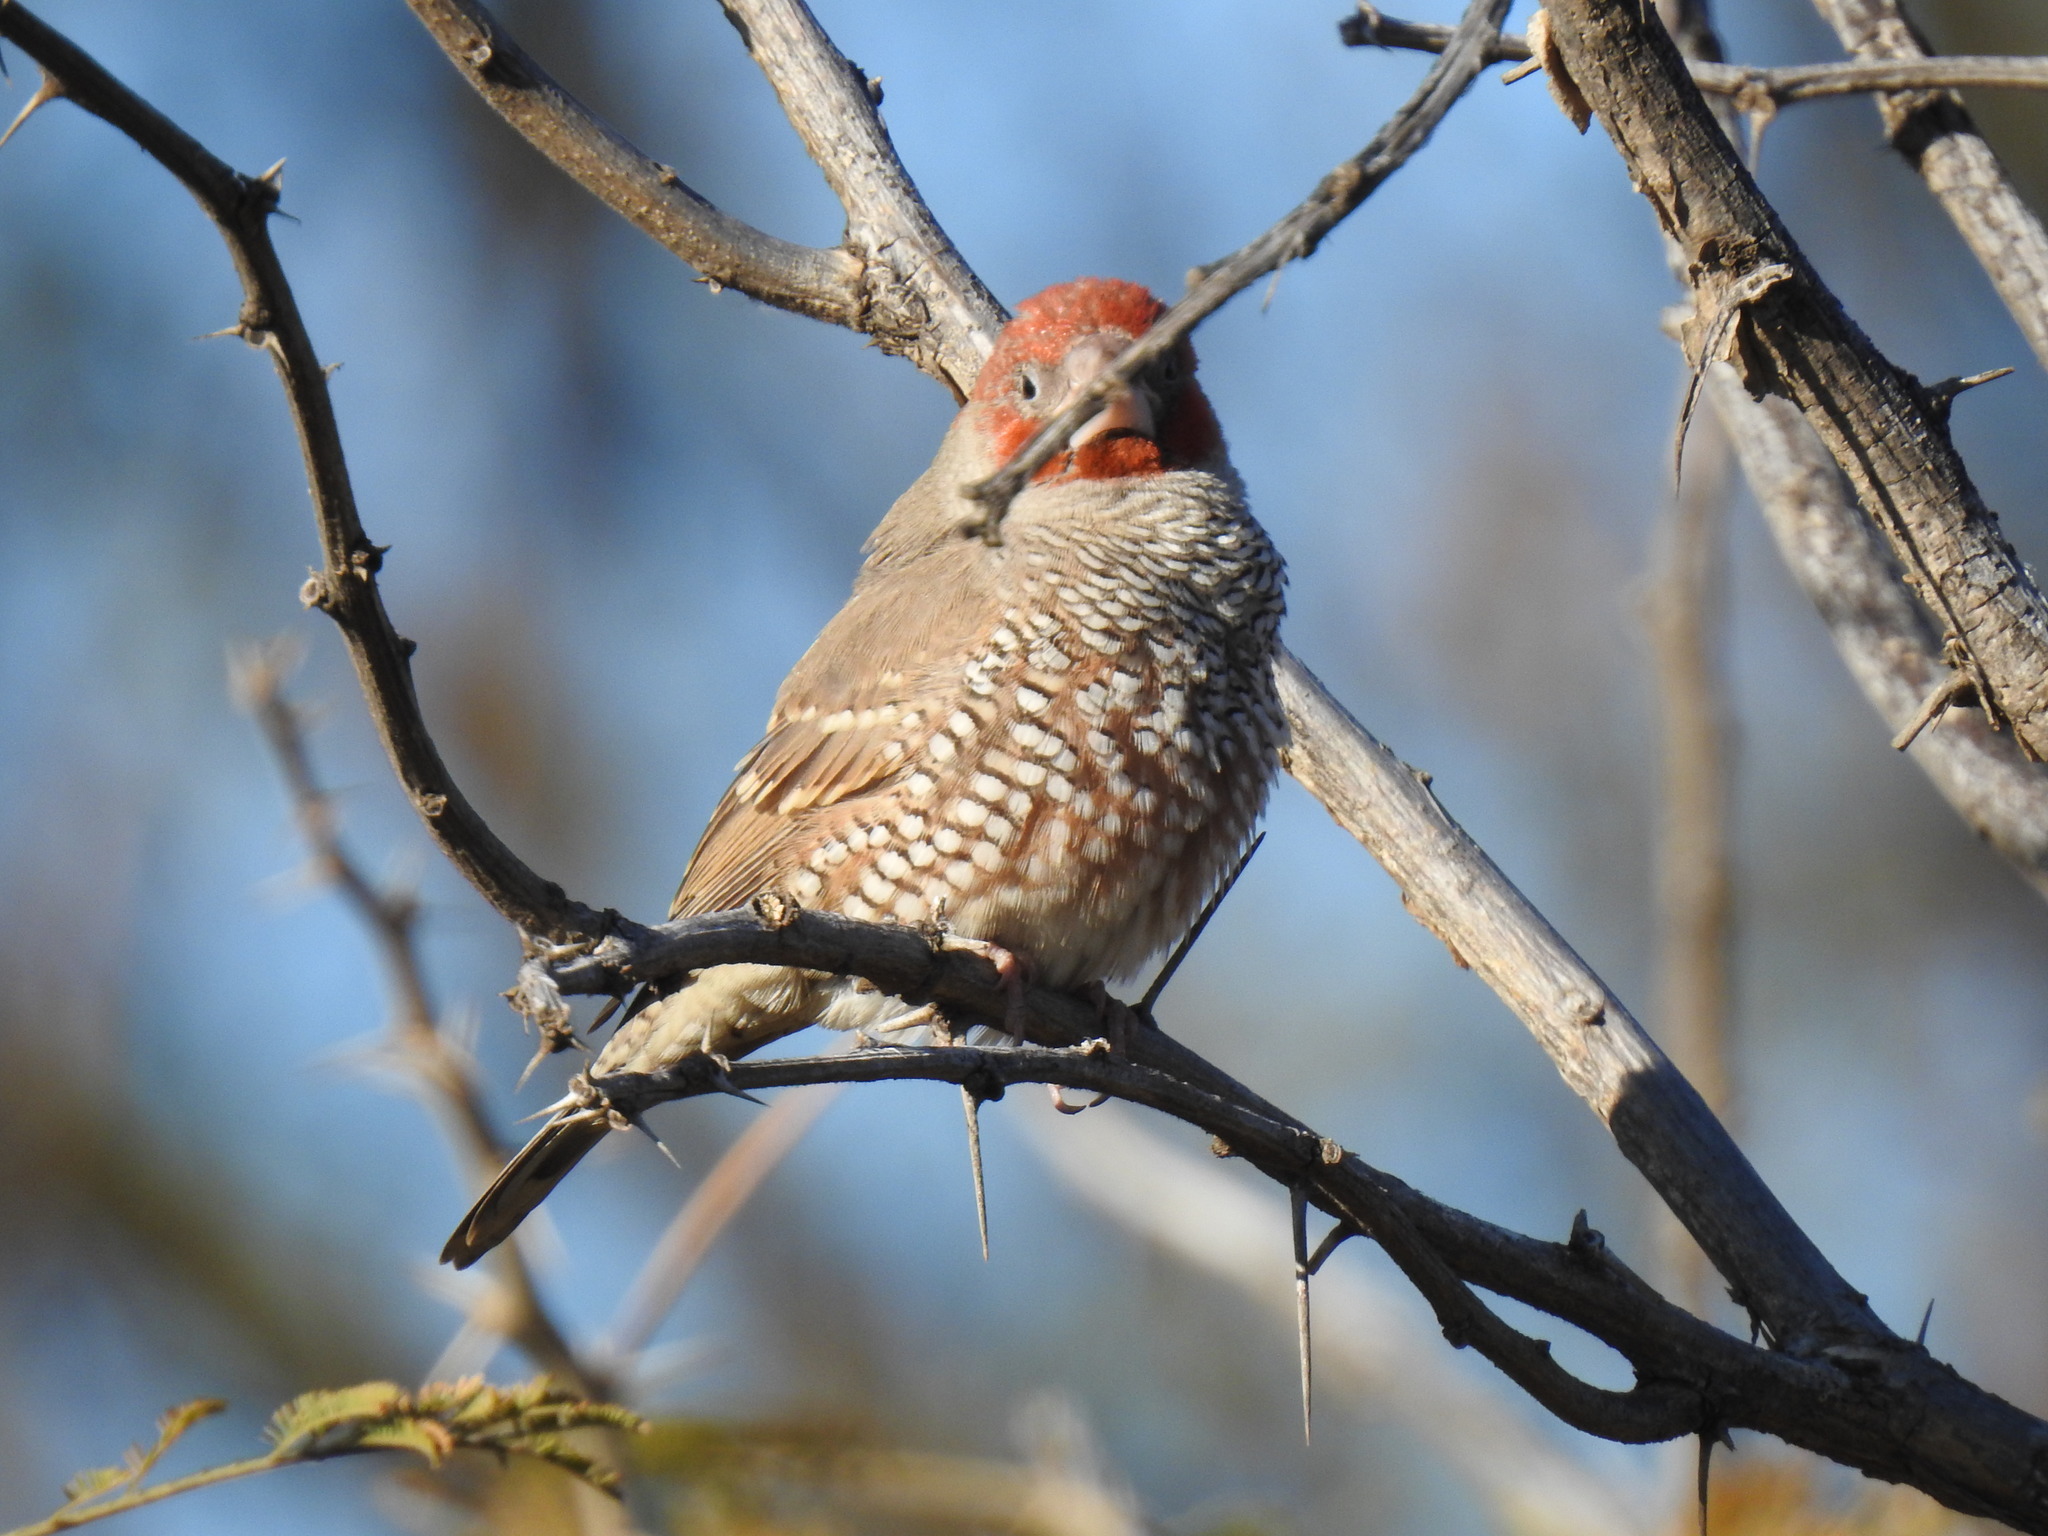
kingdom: Animalia
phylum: Chordata
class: Aves
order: Passeriformes
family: Estrildidae
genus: Amadina
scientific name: Amadina erythrocephala
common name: Red-headed finch
